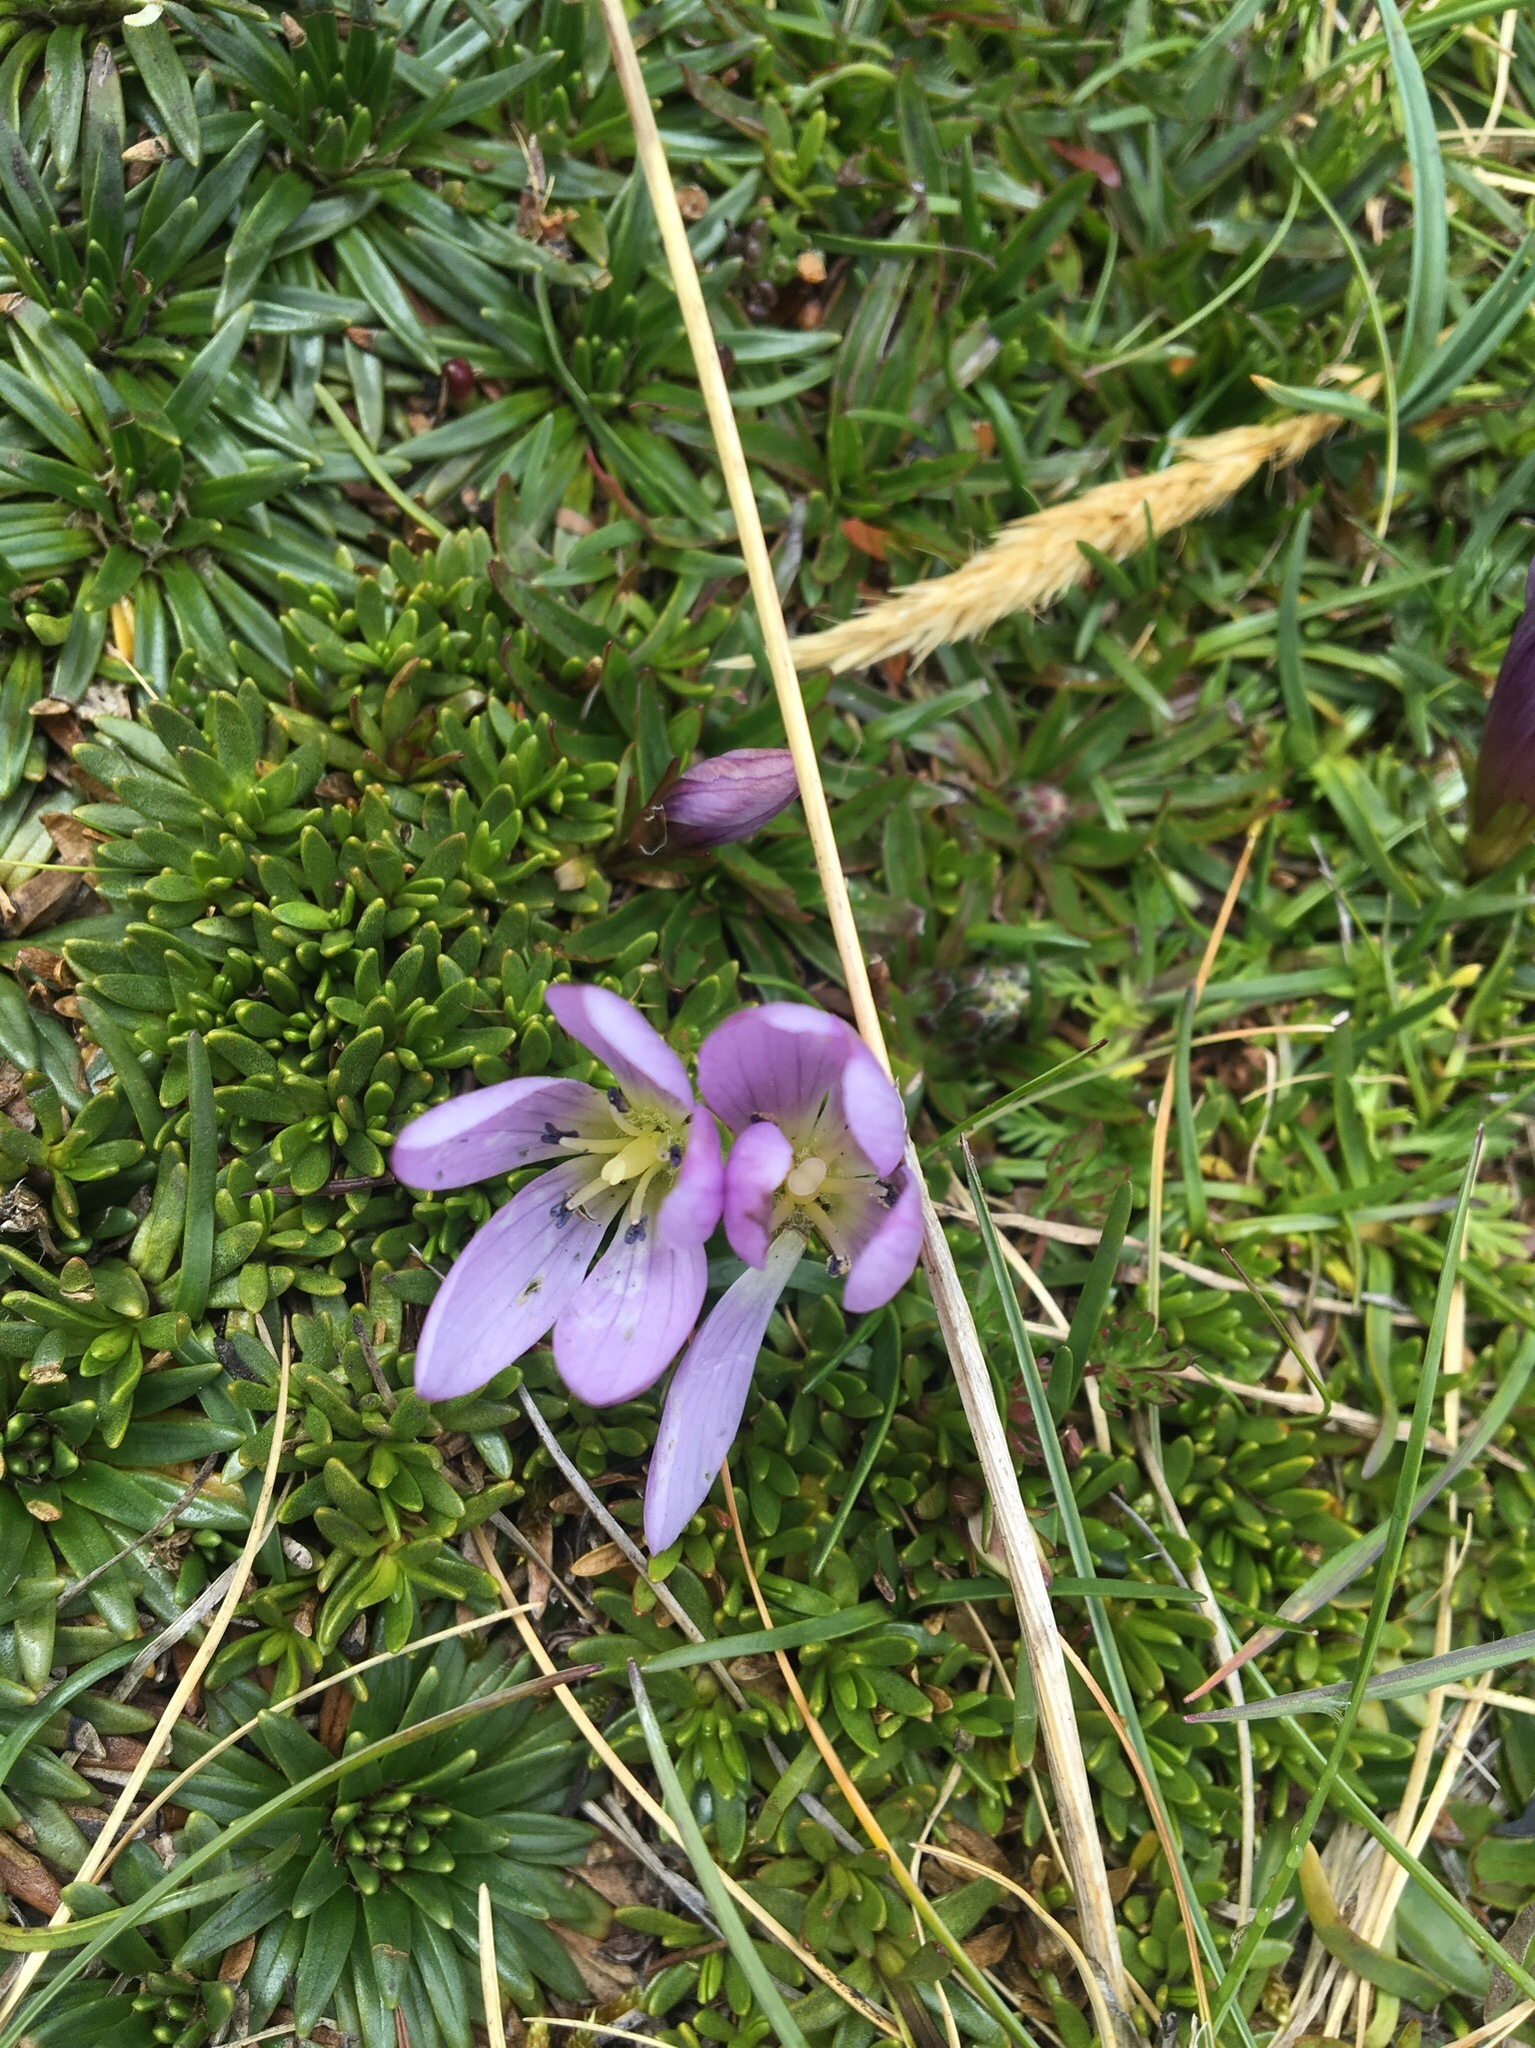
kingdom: Plantae
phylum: Tracheophyta
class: Magnoliopsida
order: Gentianales
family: Gentianaceae
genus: Gentianella
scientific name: Gentianella cerastioides
